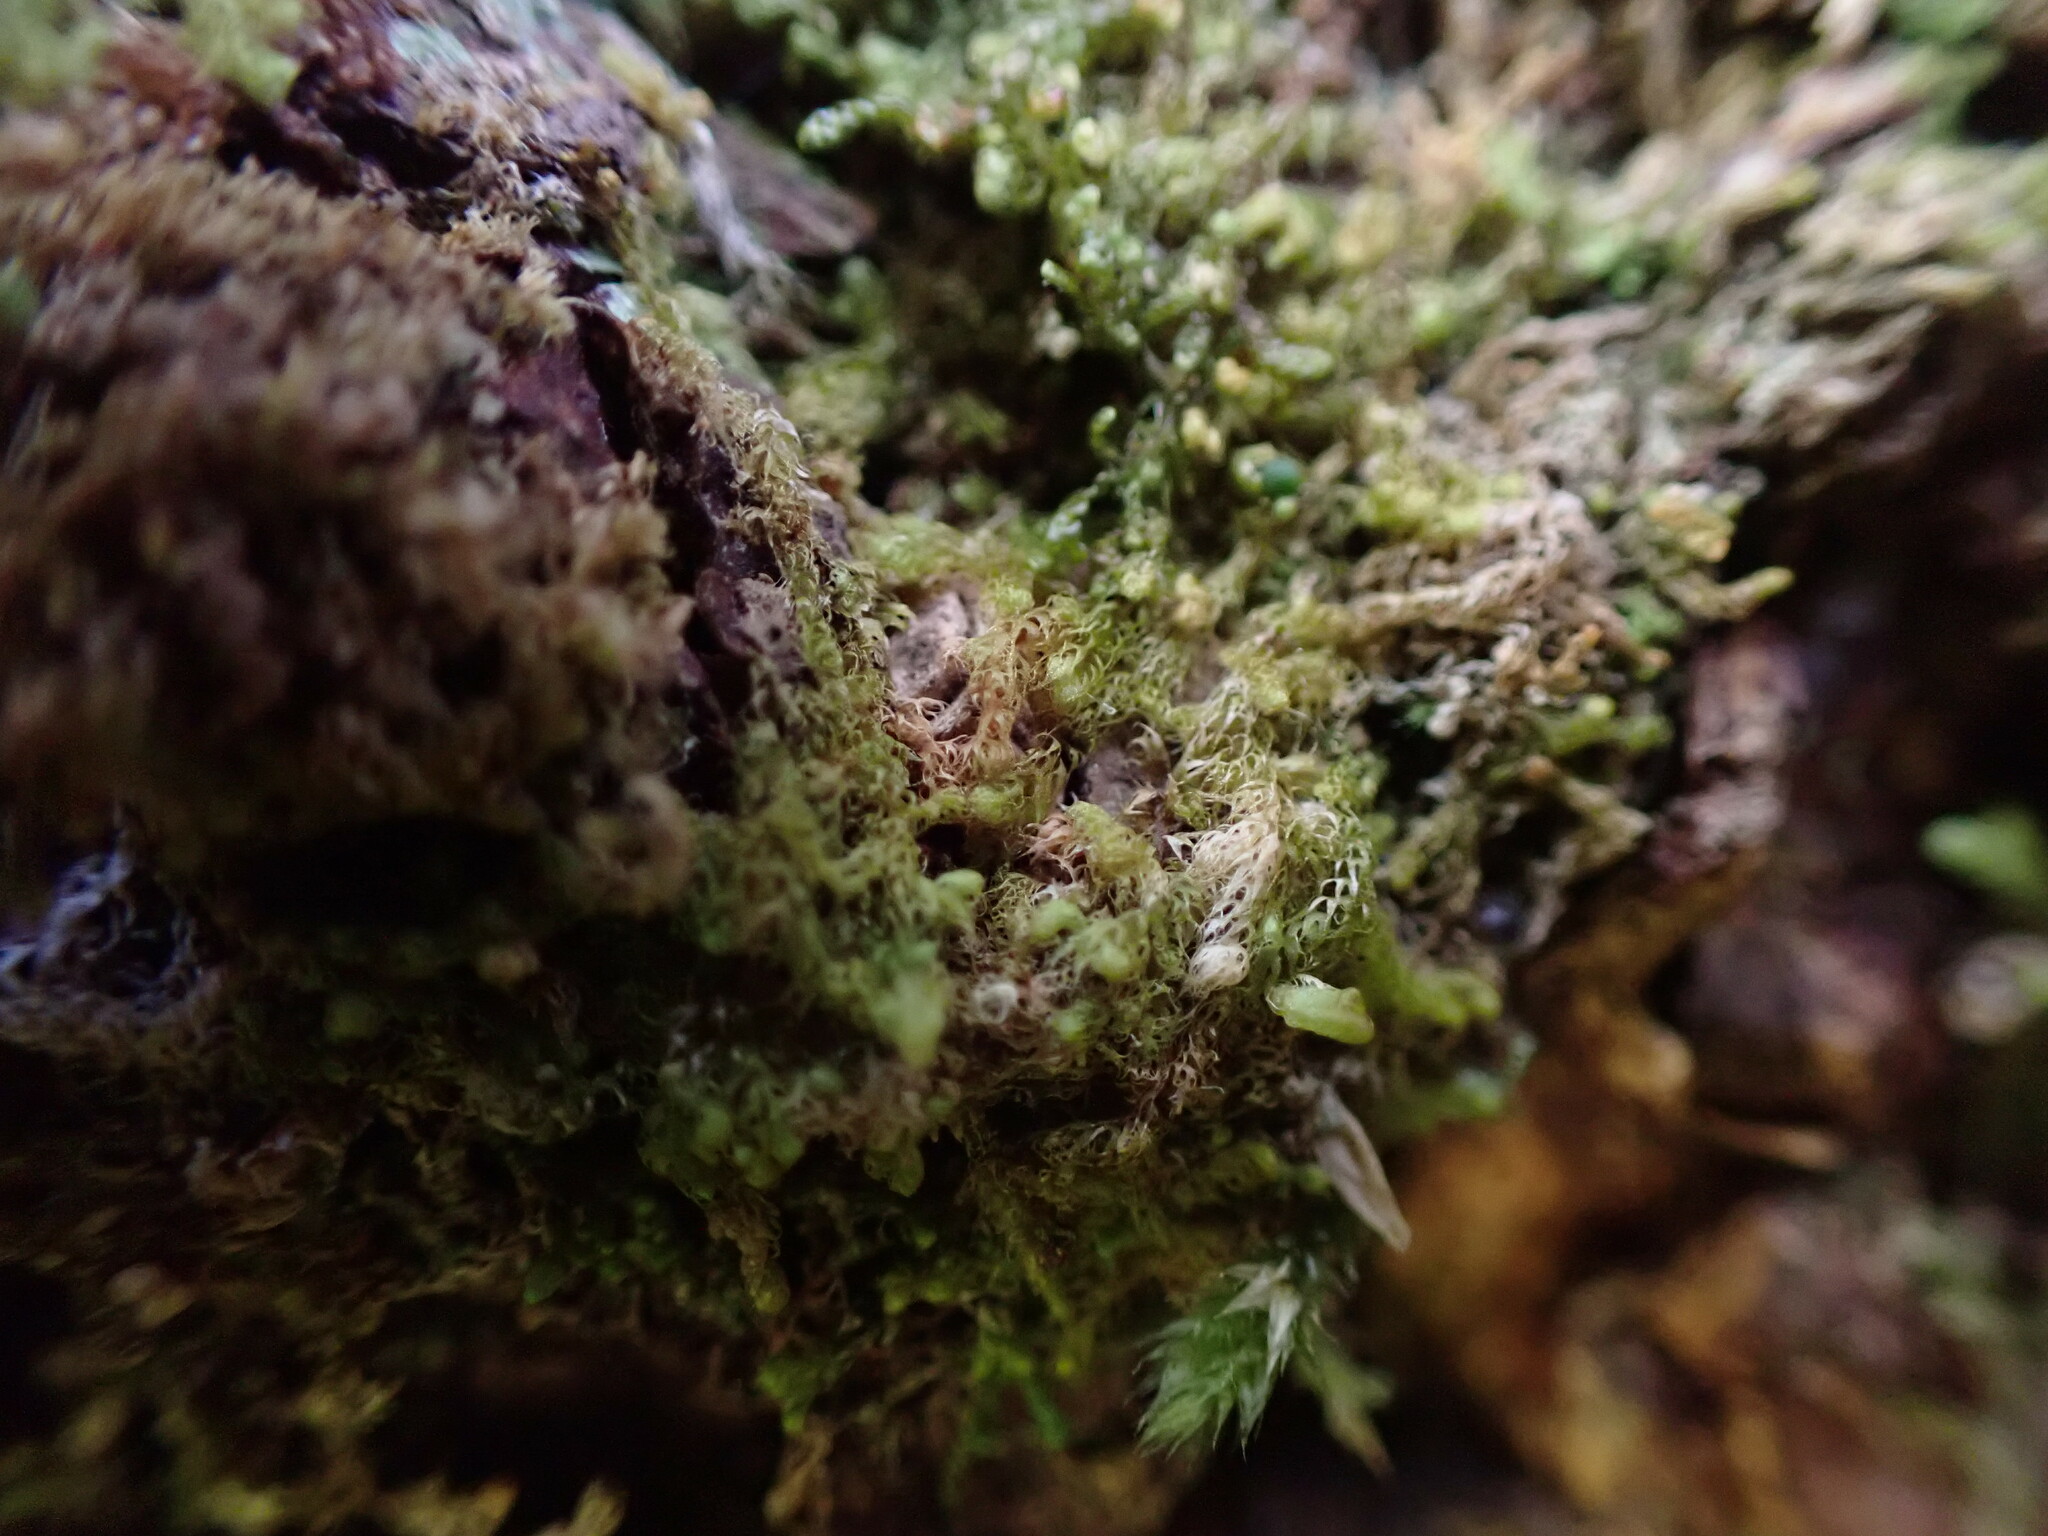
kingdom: Plantae
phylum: Marchantiophyta
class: Jungermanniopsida
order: Ptilidiales
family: Ptilidiaceae
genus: Ptilidium
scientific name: Ptilidium californicum
